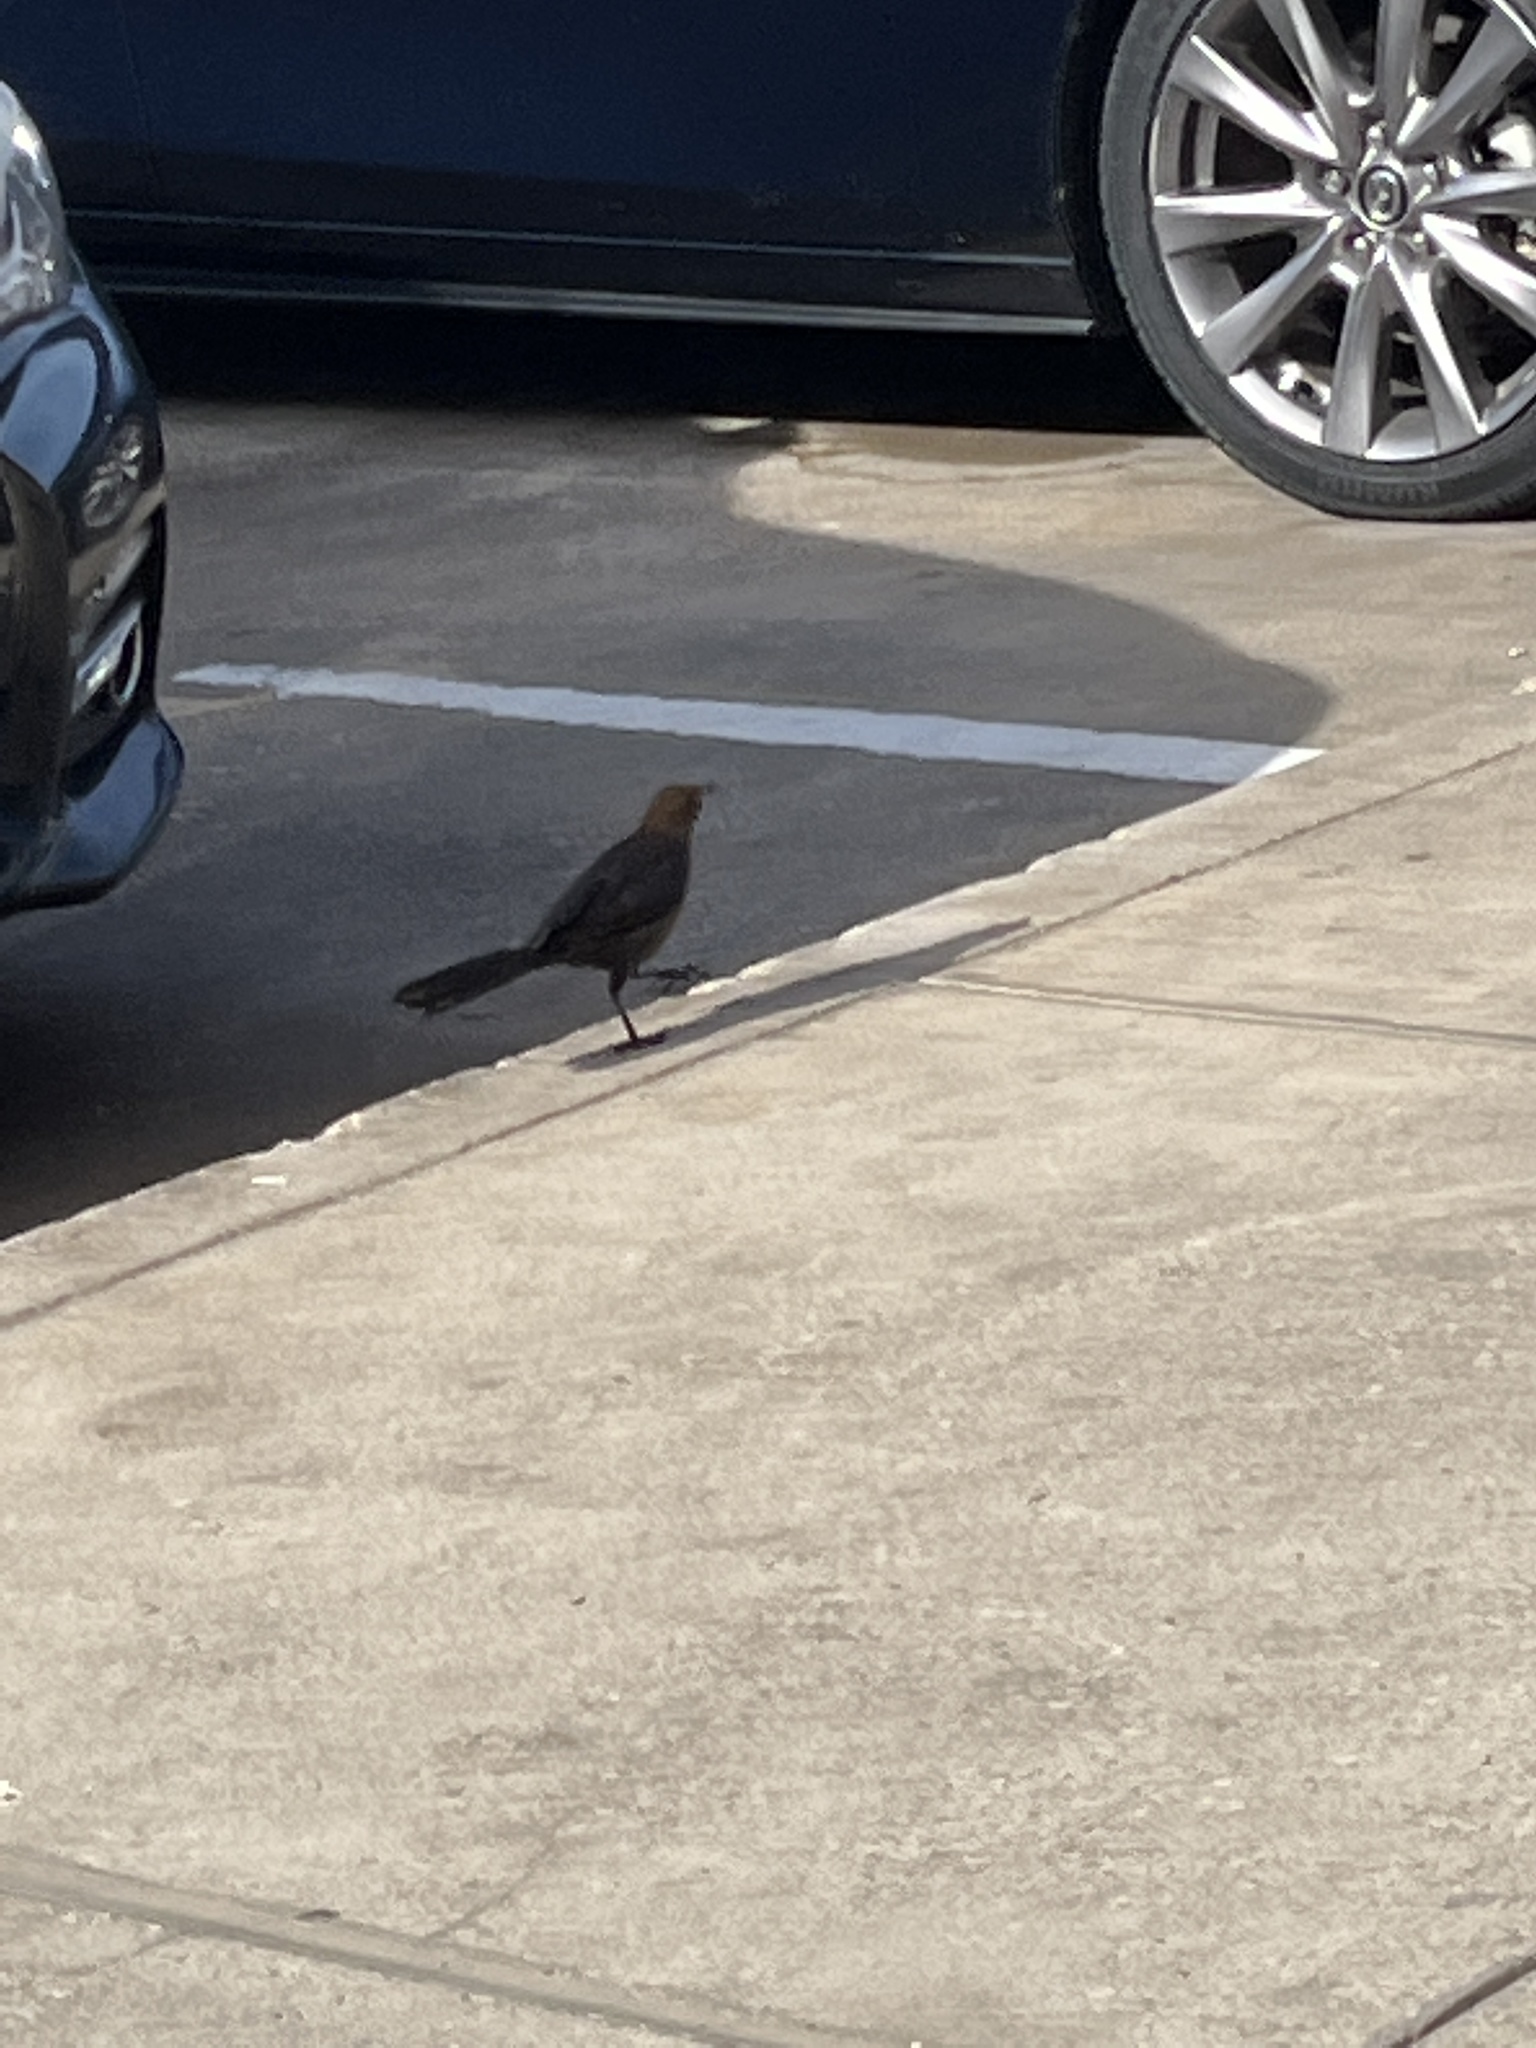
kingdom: Animalia
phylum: Chordata
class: Aves
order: Passeriformes
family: Icteridae
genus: Quiscalus
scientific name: Quiscalus mexicanus
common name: Great-tailed grackle
